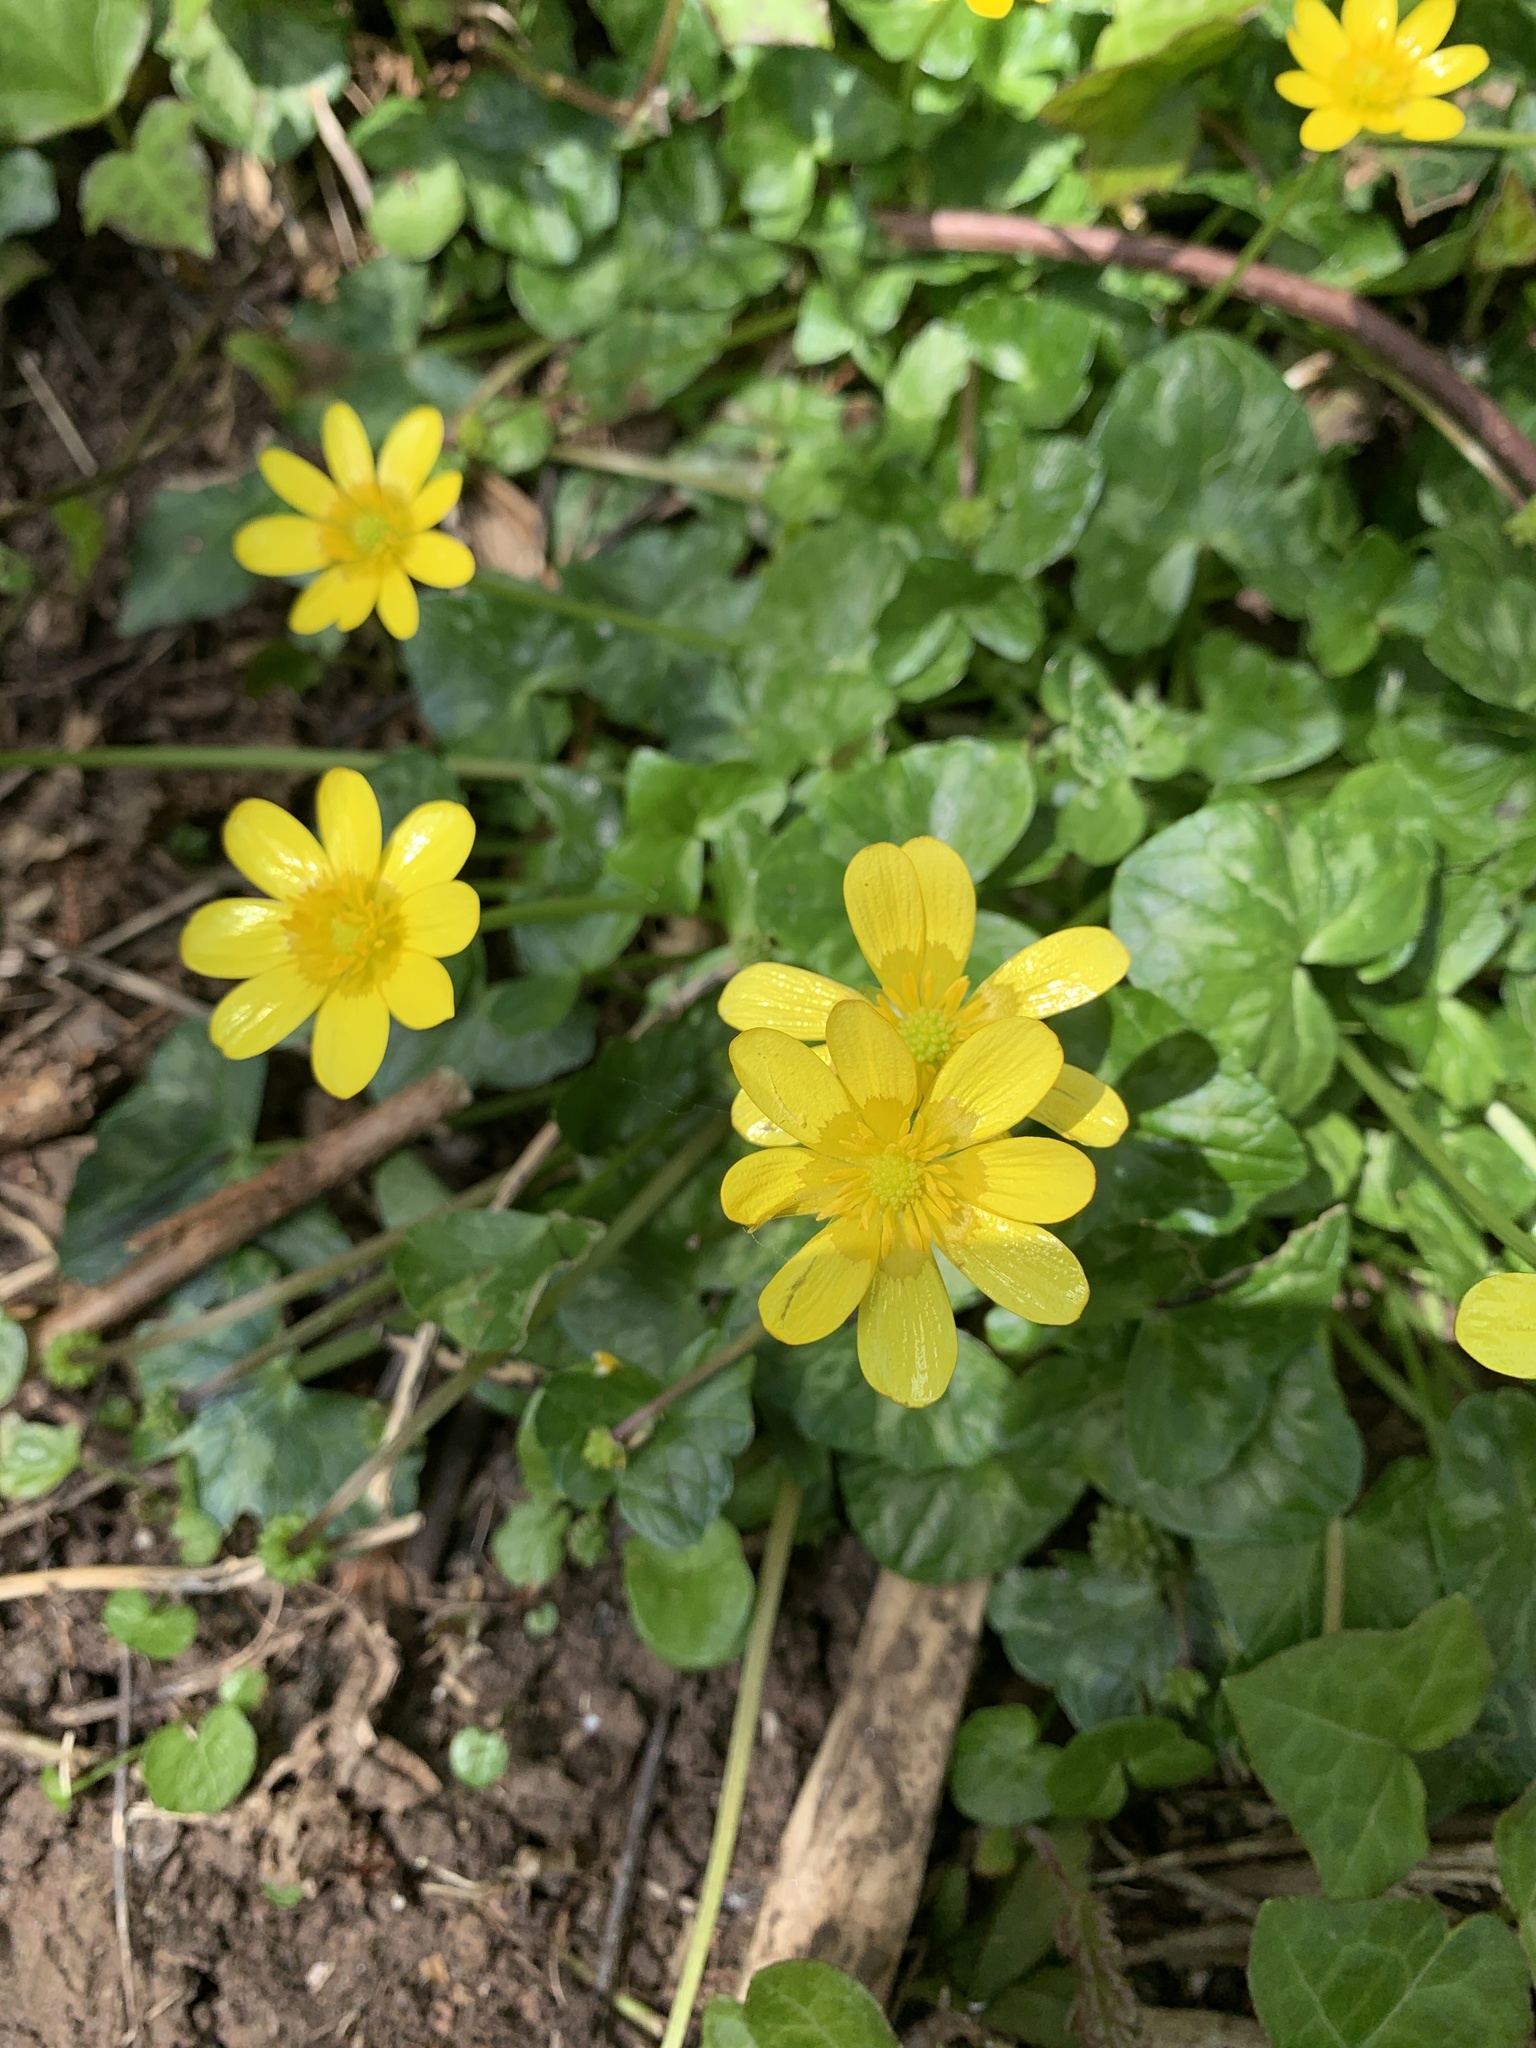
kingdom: Plantae
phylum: Tracheophyta
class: Magnoliopsida
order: Ranunculales
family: Ranunculaceae
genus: Ficaria
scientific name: Ficaria verna
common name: Lesser celandine
